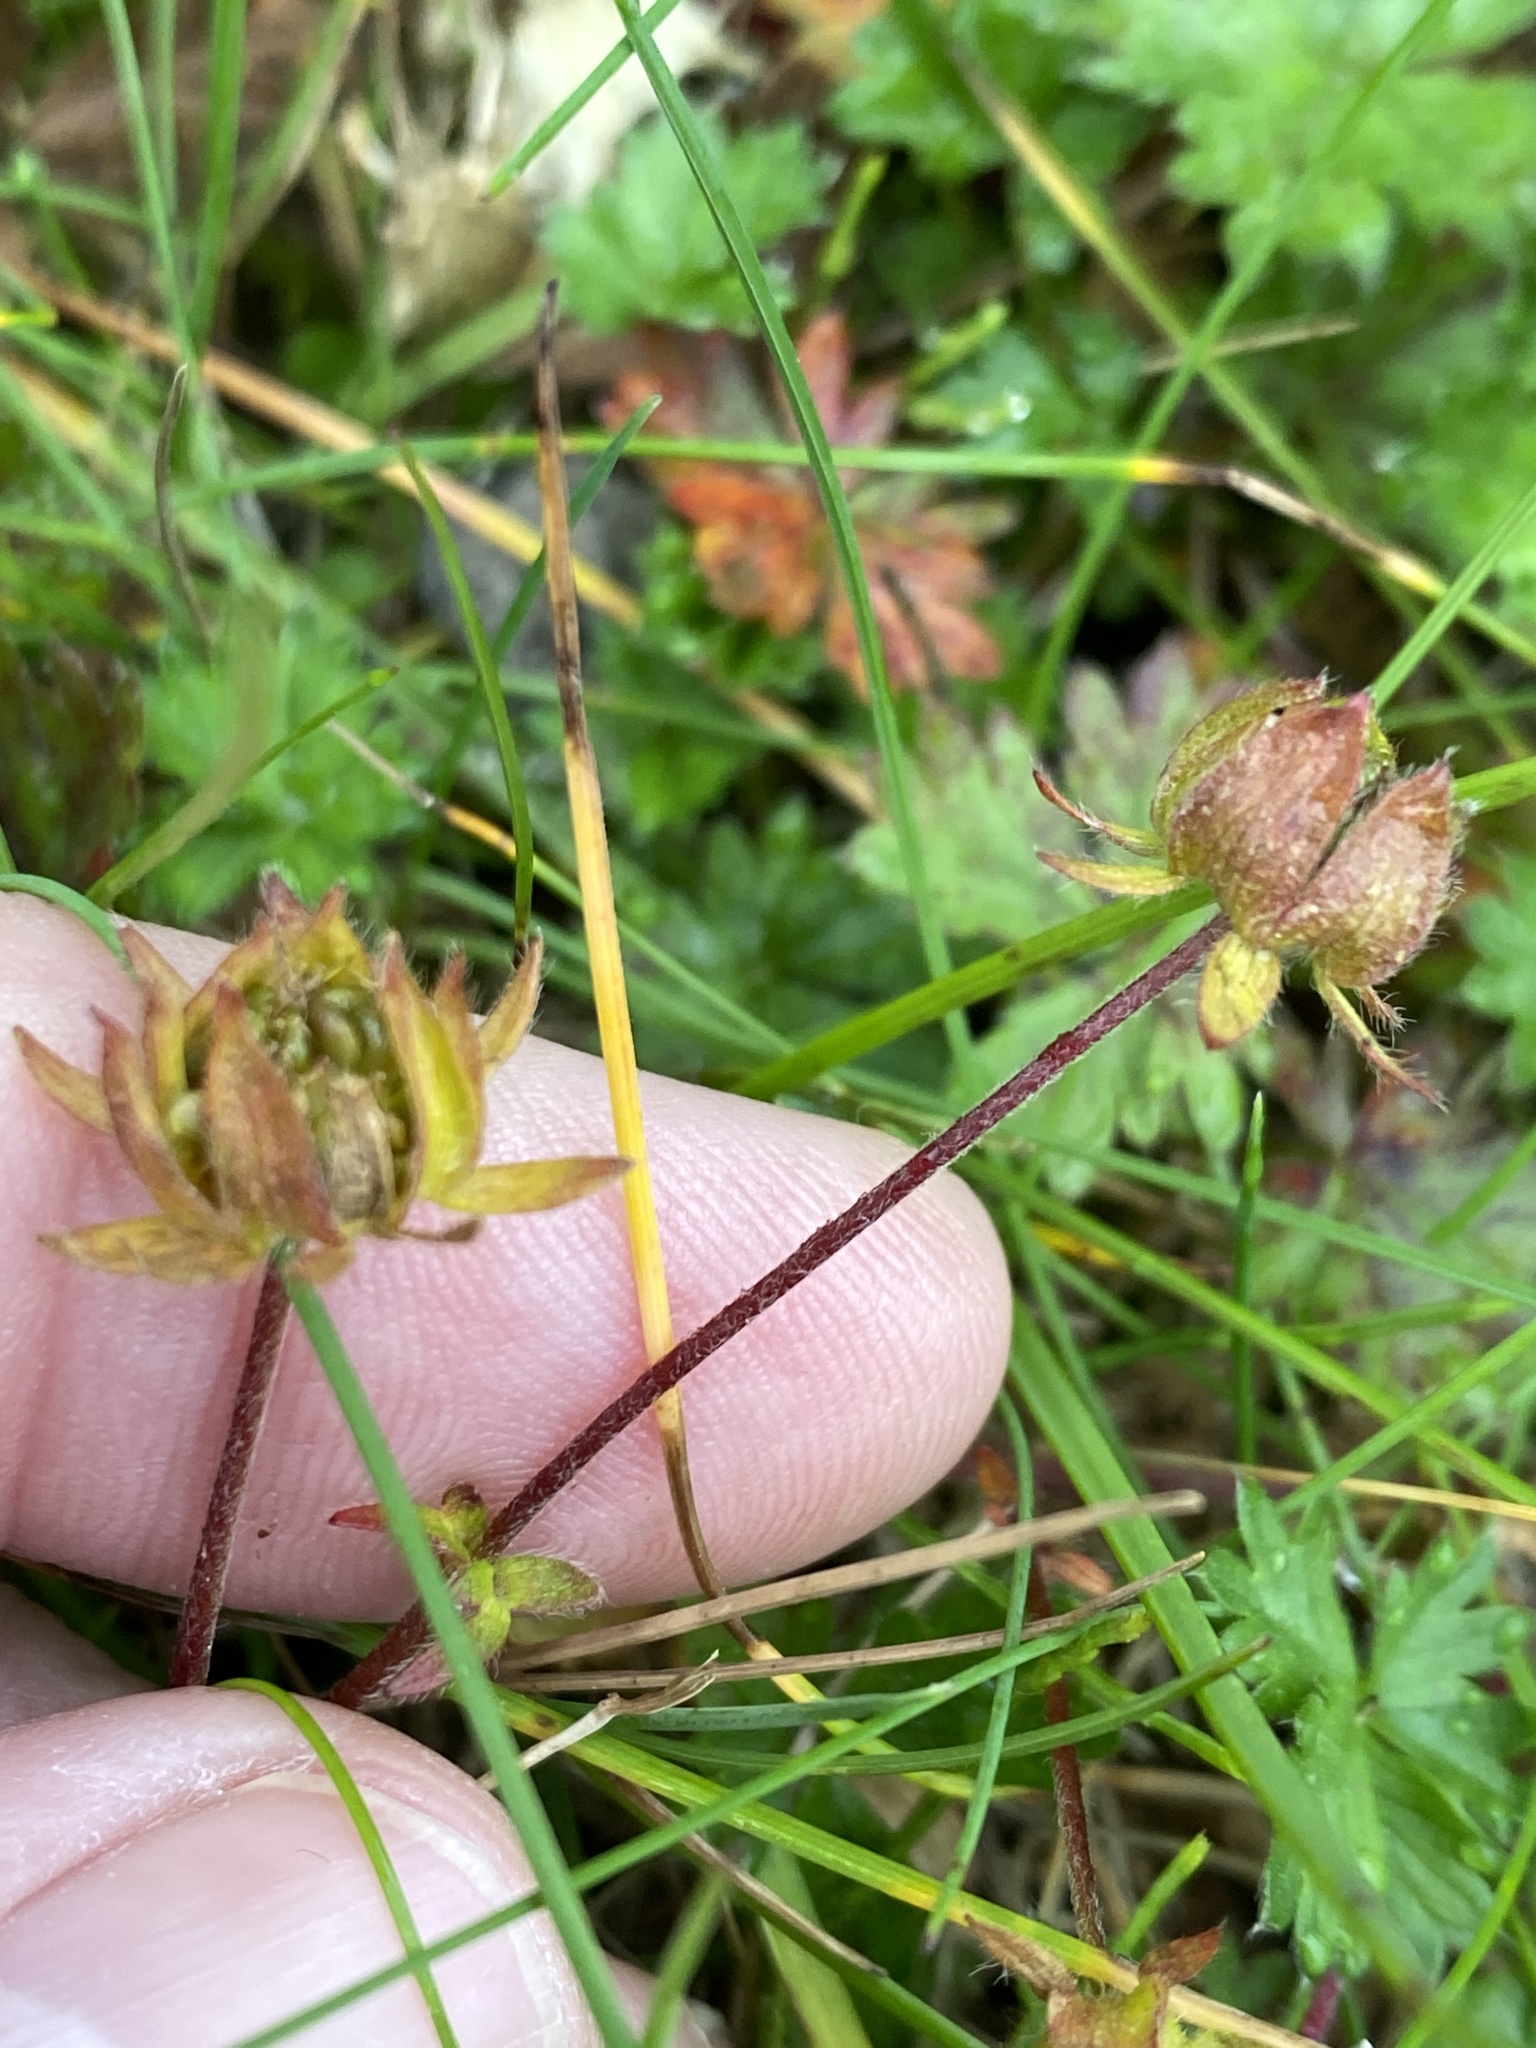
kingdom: Plantae
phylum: Tracheophyta
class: Magnoliopsida
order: Rosales
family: Rosaceae
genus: Potentilla
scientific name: Potentilla crantzii
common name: Alpine cinquefoil
